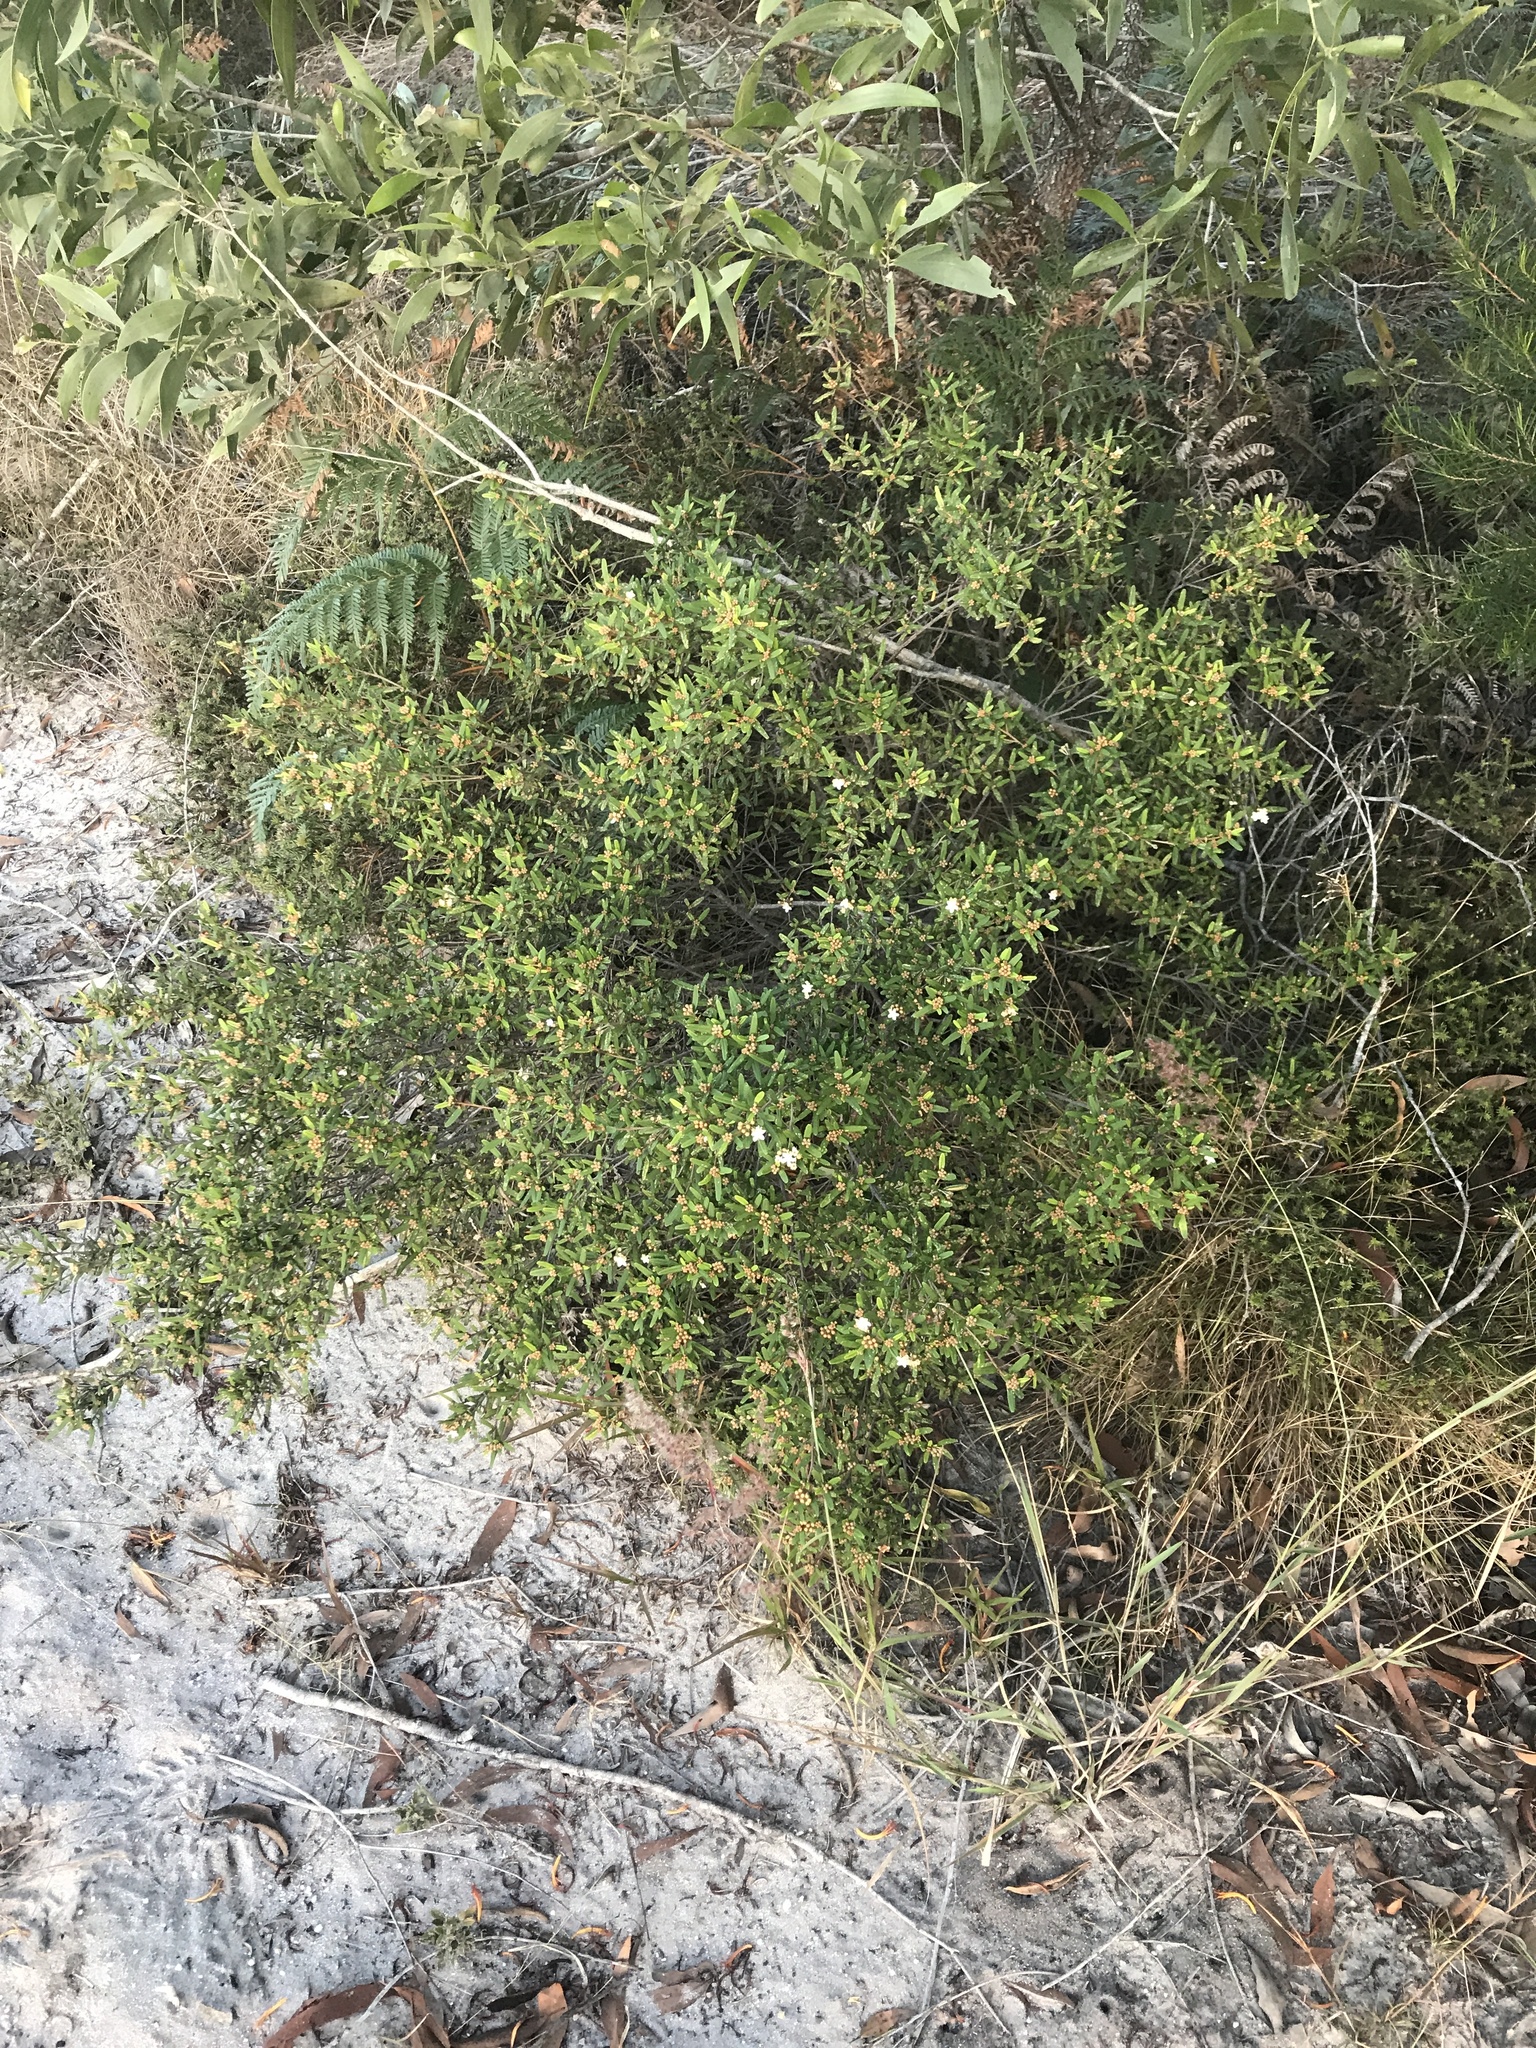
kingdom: Plantae
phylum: Tracheophyta
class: Magnoliopsida
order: Sapindales
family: Rutaceae
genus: Phebalium
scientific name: Phebalium woombye
